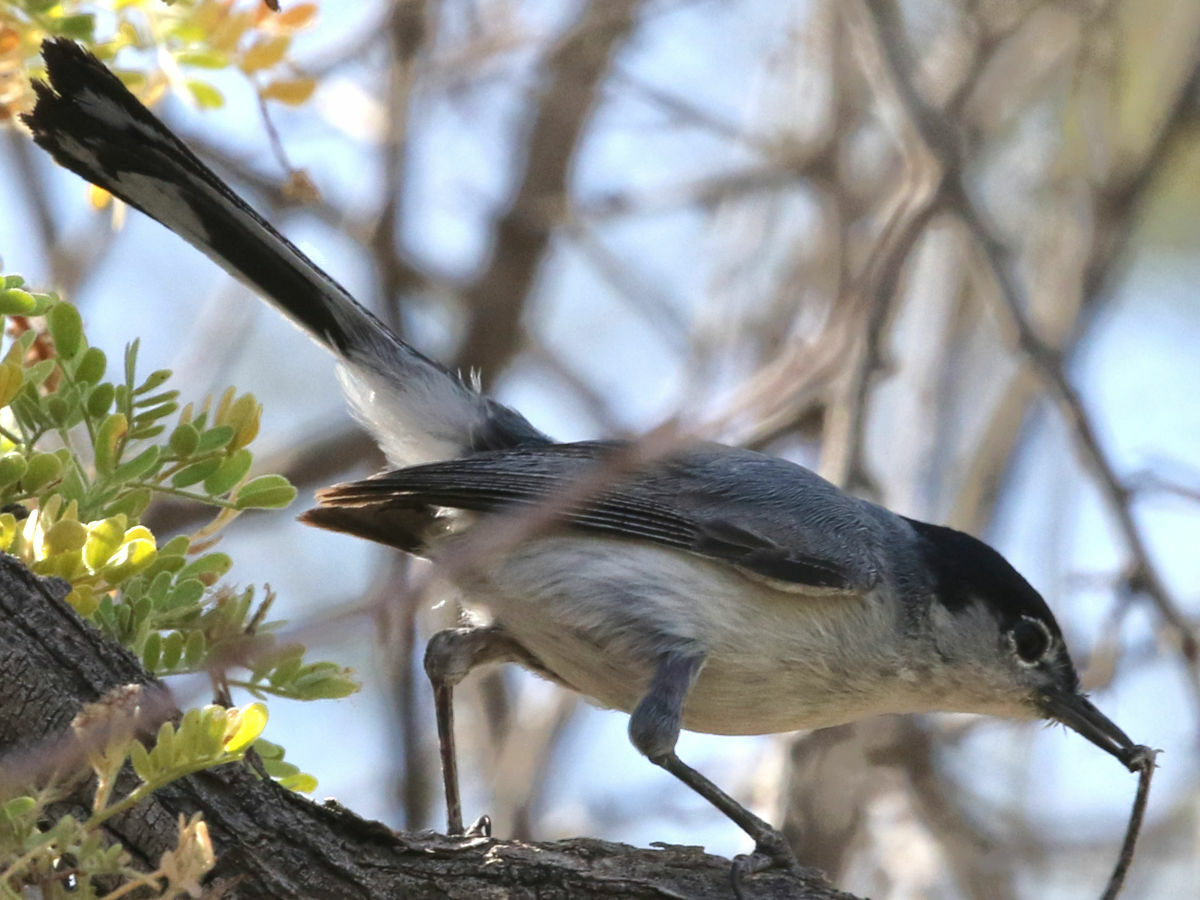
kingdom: Animalia
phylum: Chordata
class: Aves
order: Passeriformes
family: Polioptilidae
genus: Polioptila
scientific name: Polioptila melanura
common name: Black-tailed gnatcatcher
